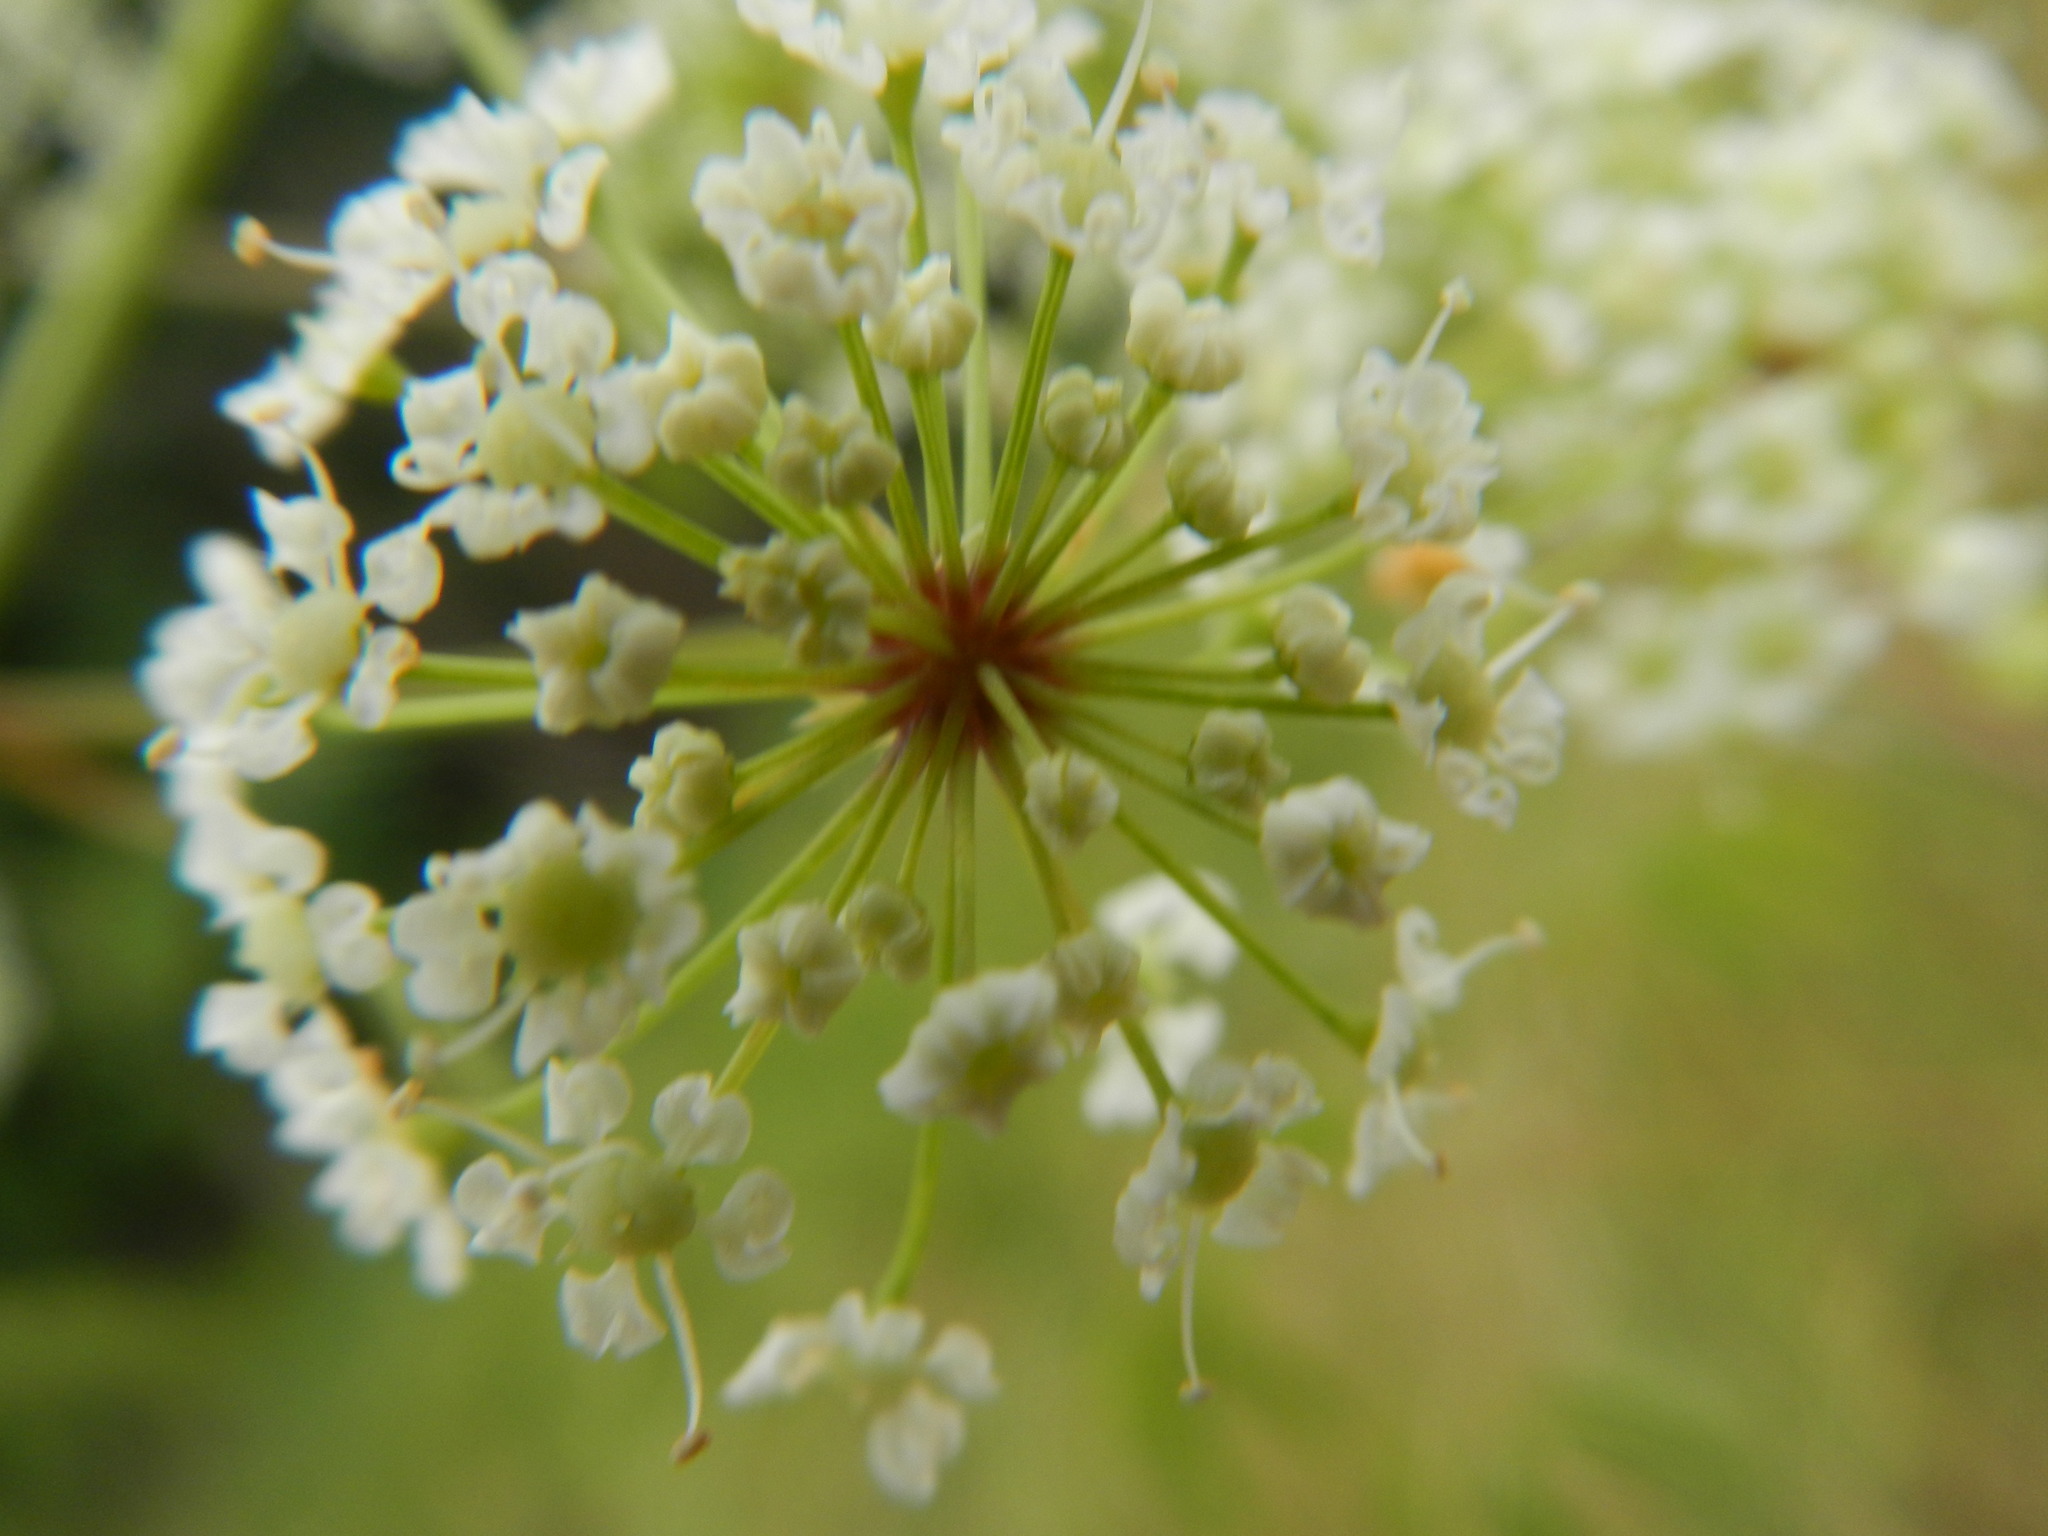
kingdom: Plantae
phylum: Tracheophyta
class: Magnoliopsida
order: Apiales
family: Apiaceae
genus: Cicuta
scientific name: Cicuta maculata
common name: Spotted cowbane
